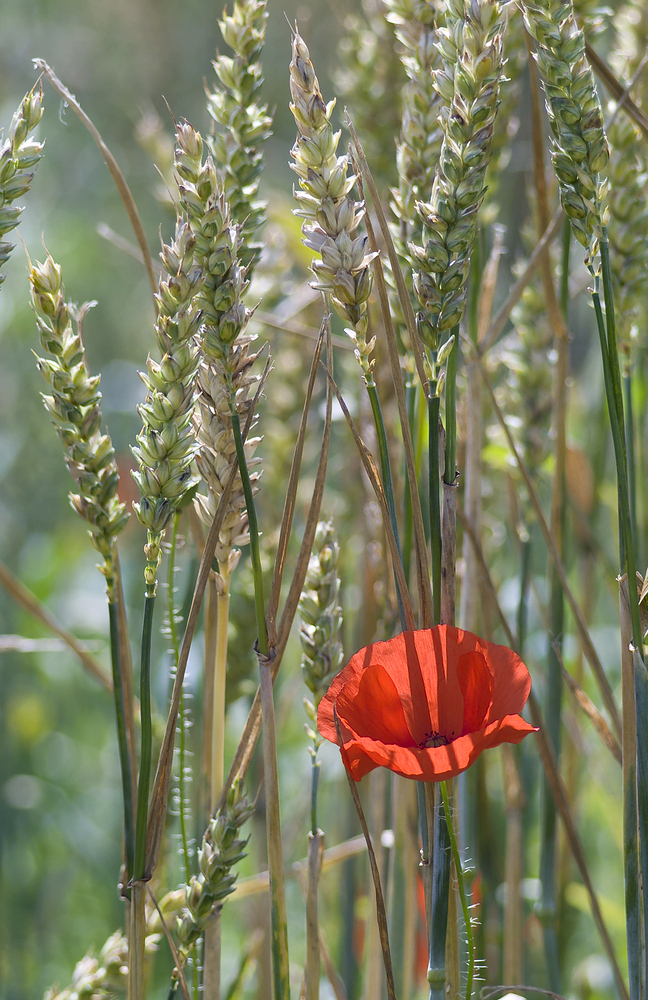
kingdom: Plantae
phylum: Tracheophyta
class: Magnoliopsida
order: Ranunculales
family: Papaveraceae
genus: Papaver
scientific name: Papaver rhoeas
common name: Corn poppy
